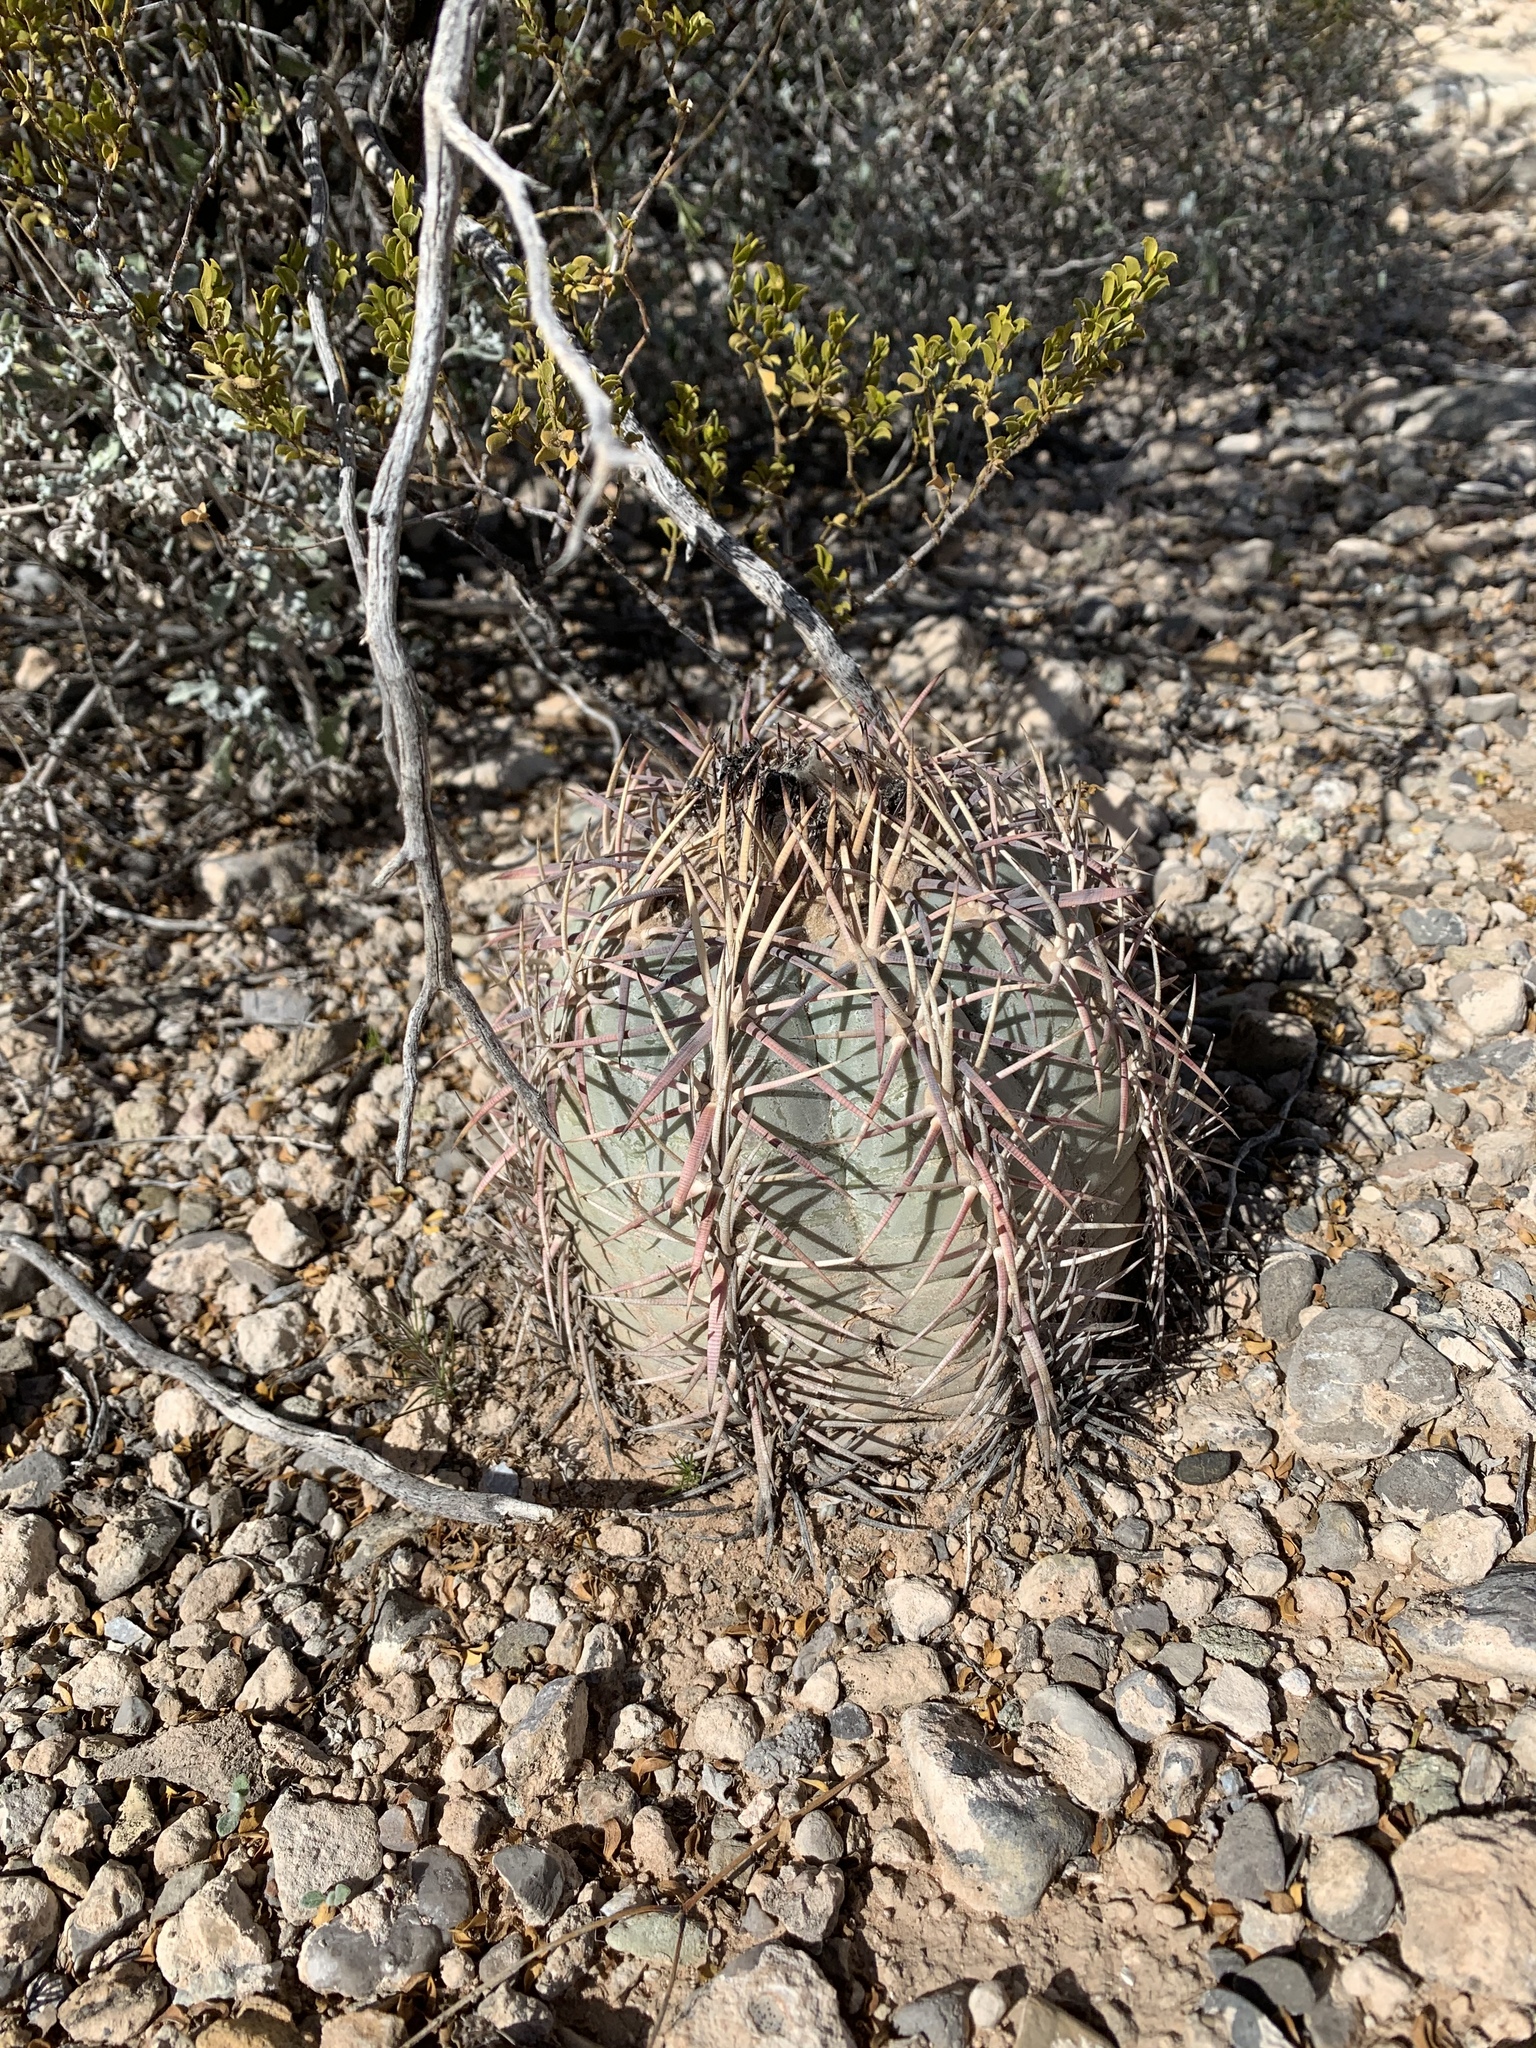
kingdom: Plantae
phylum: Tracheophyta
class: Magnoliopsida
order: Caryophyllales
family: Cactaceae
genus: Echinocactus
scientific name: Echinocactus horizonthalonius
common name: Devilshead
